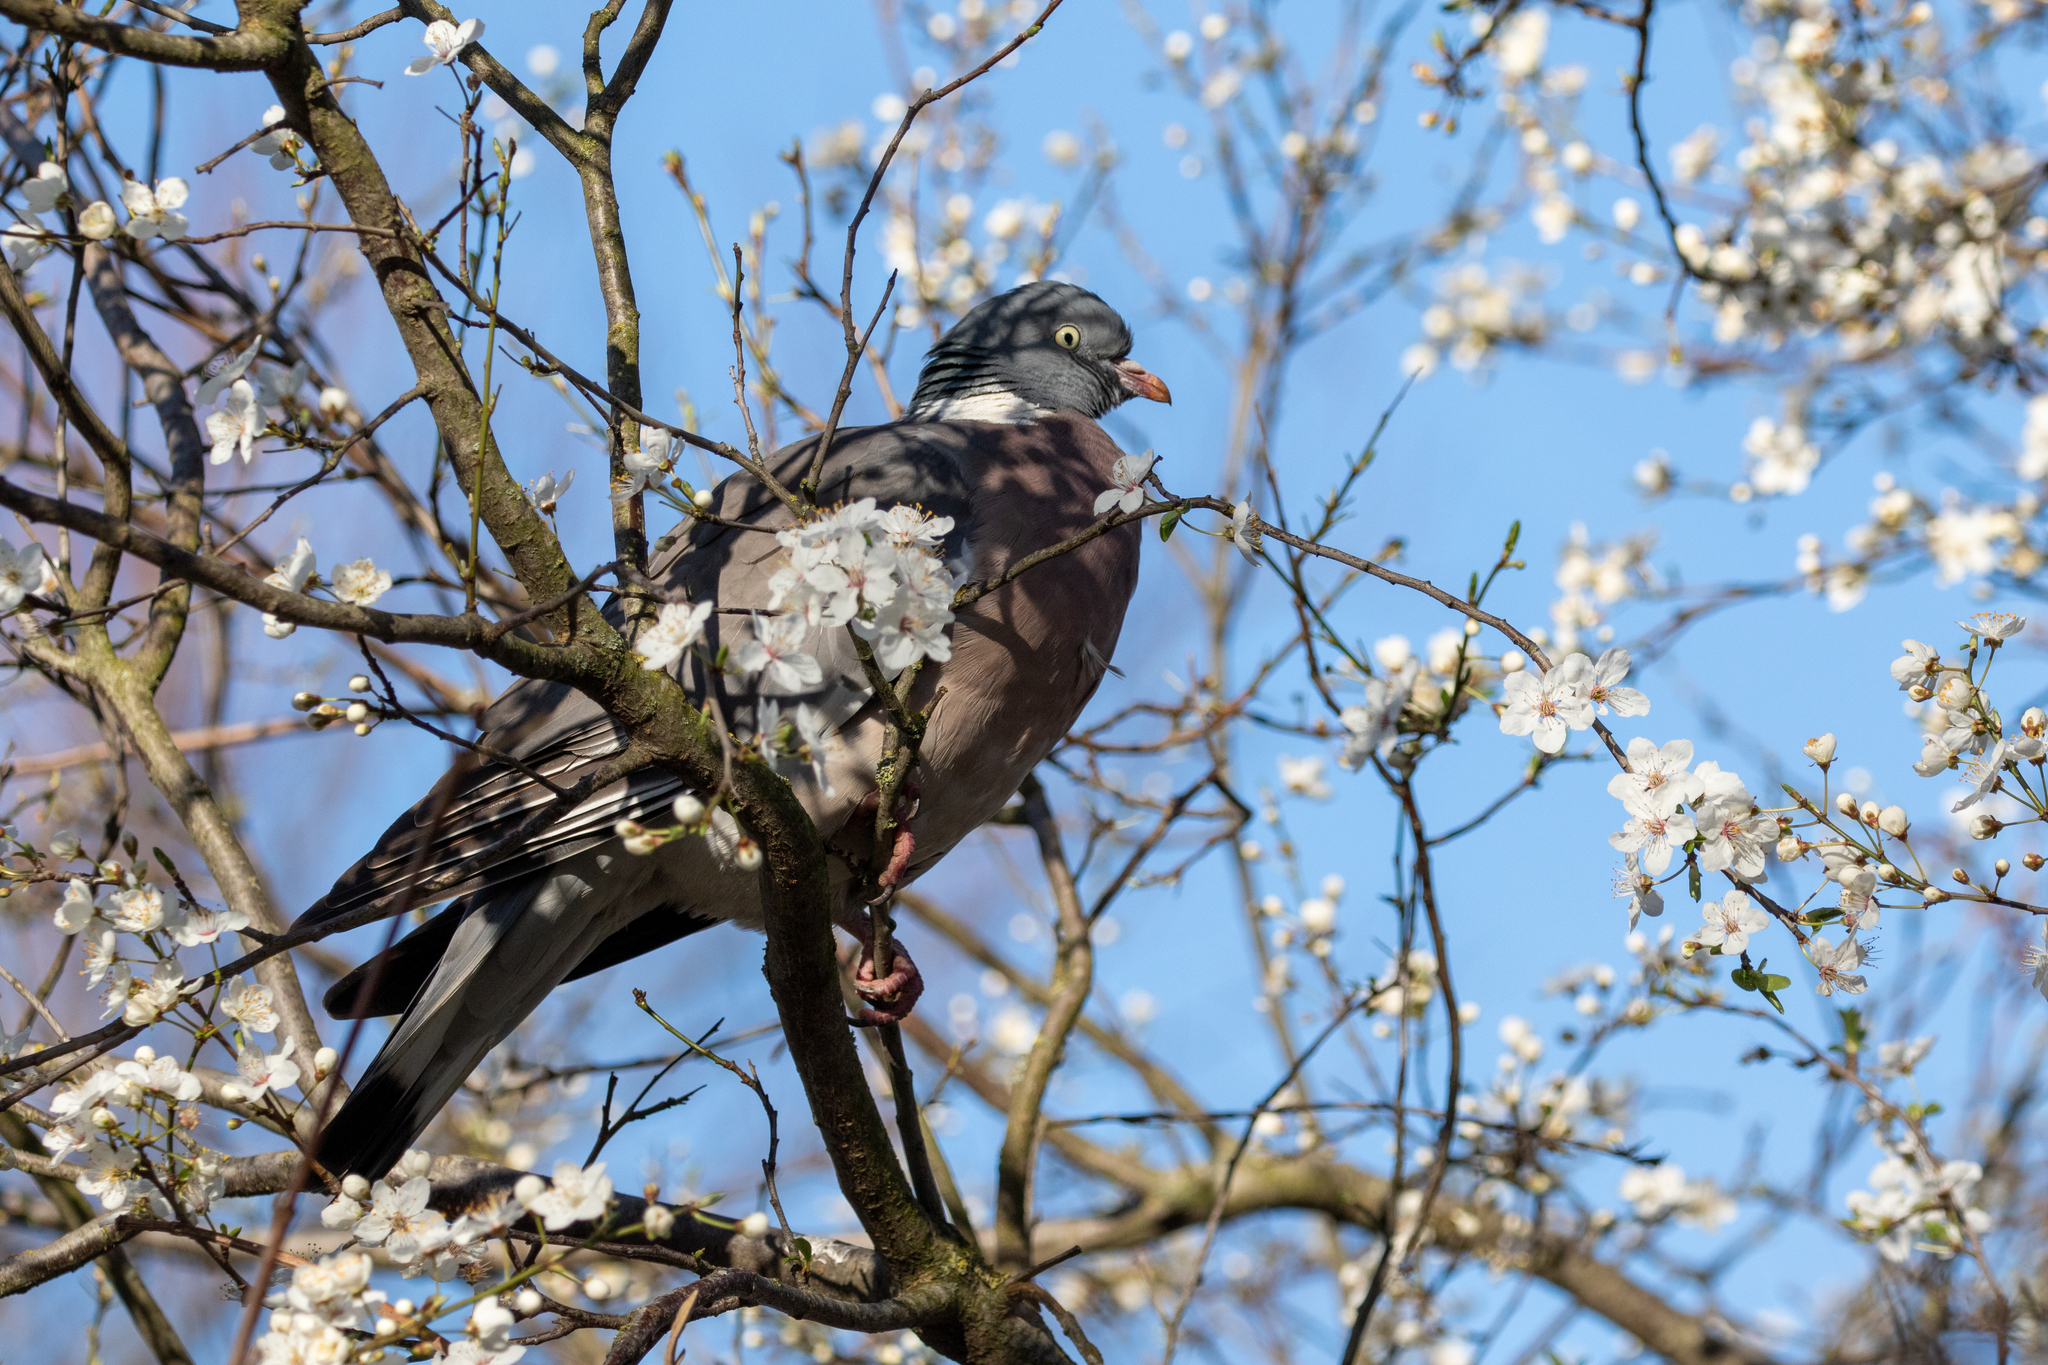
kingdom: Animalia
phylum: Chordata
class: Aves
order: Columbiformes
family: Columbidae
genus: Columba
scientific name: Columba palumbus
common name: Common wood pigeon
